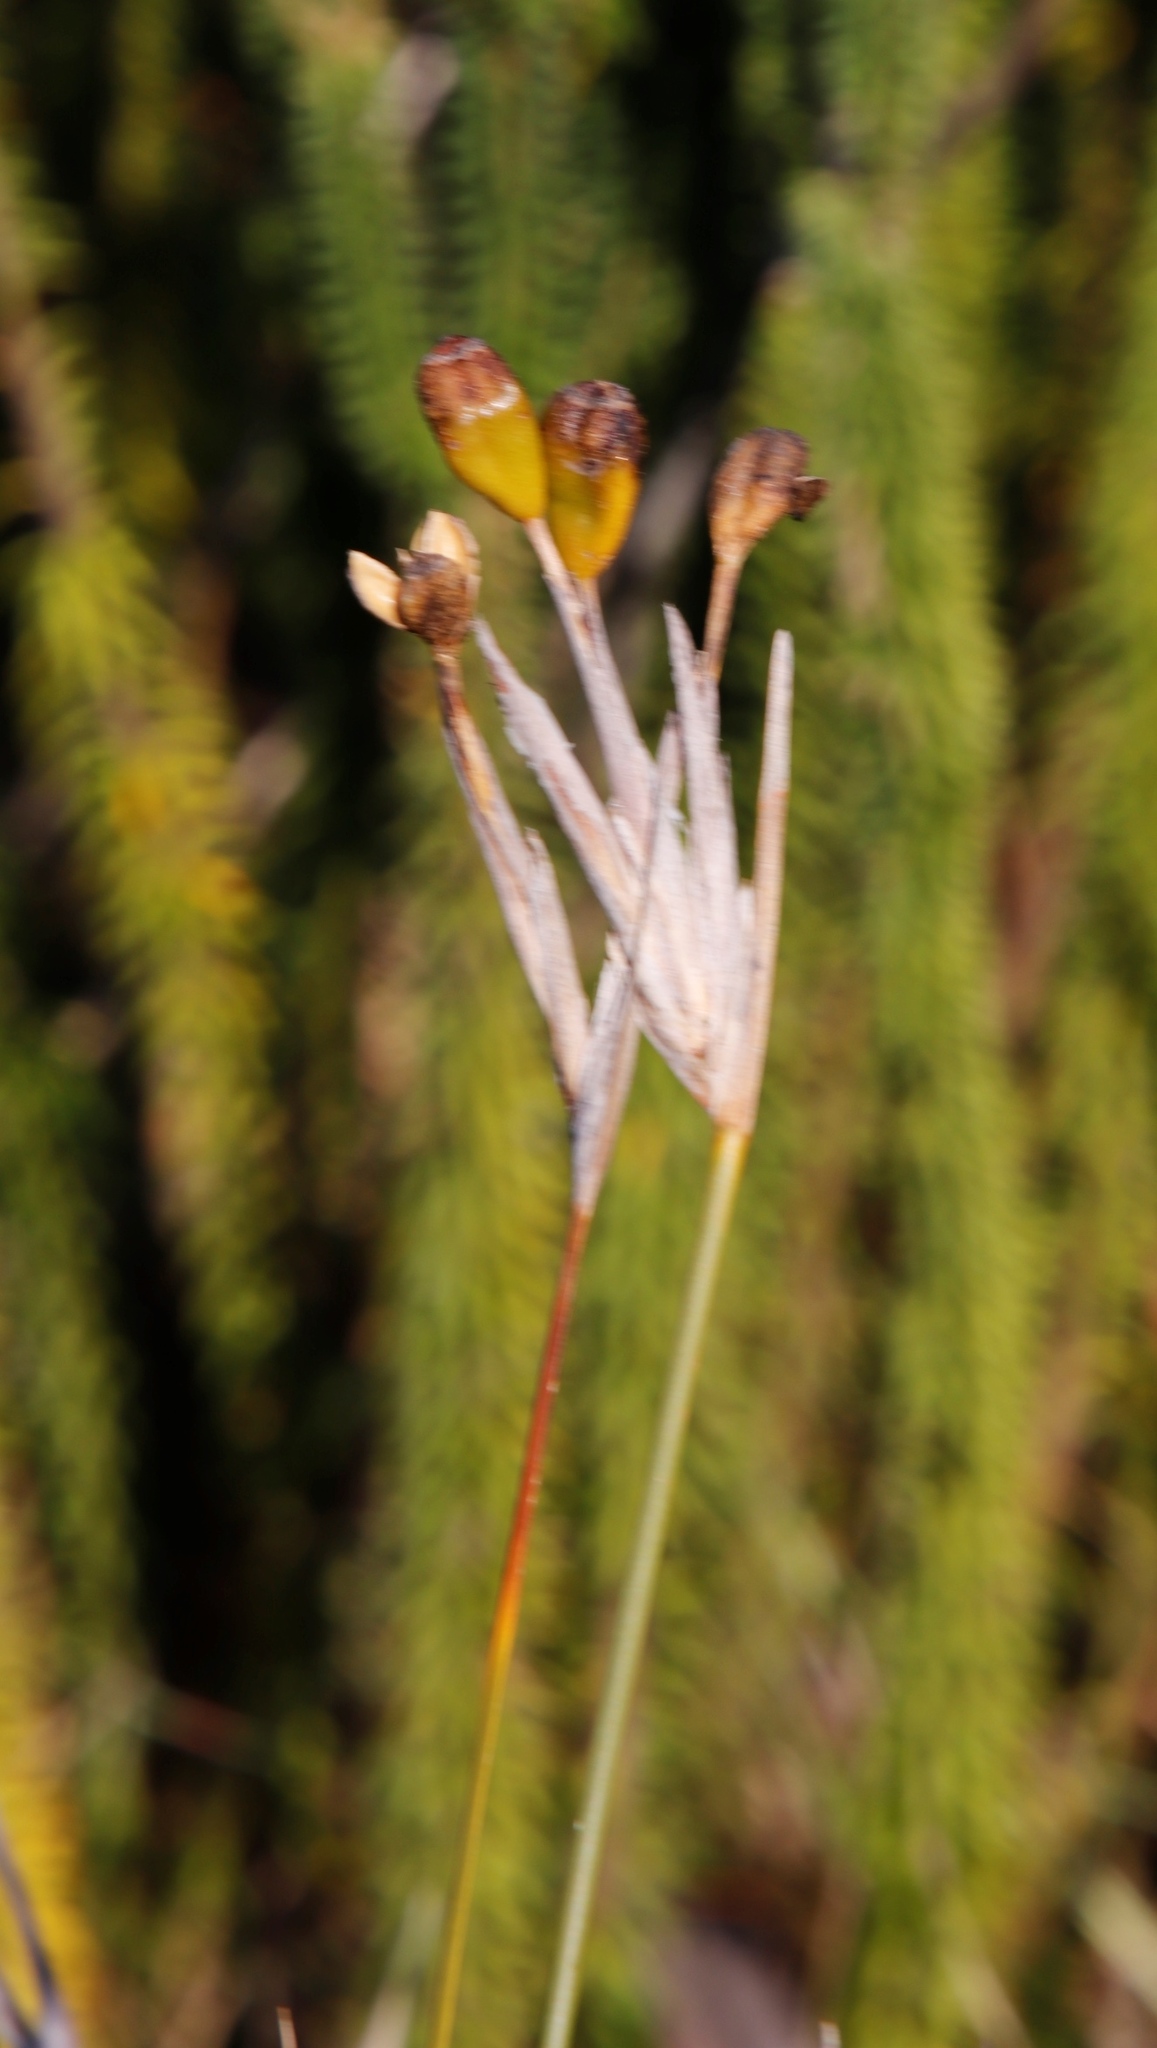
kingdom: Plantae
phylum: Tracheophyta
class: Liliopsida
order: Asparagales
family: Iridaceae
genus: Bobartia
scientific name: Bobartia gladiata
